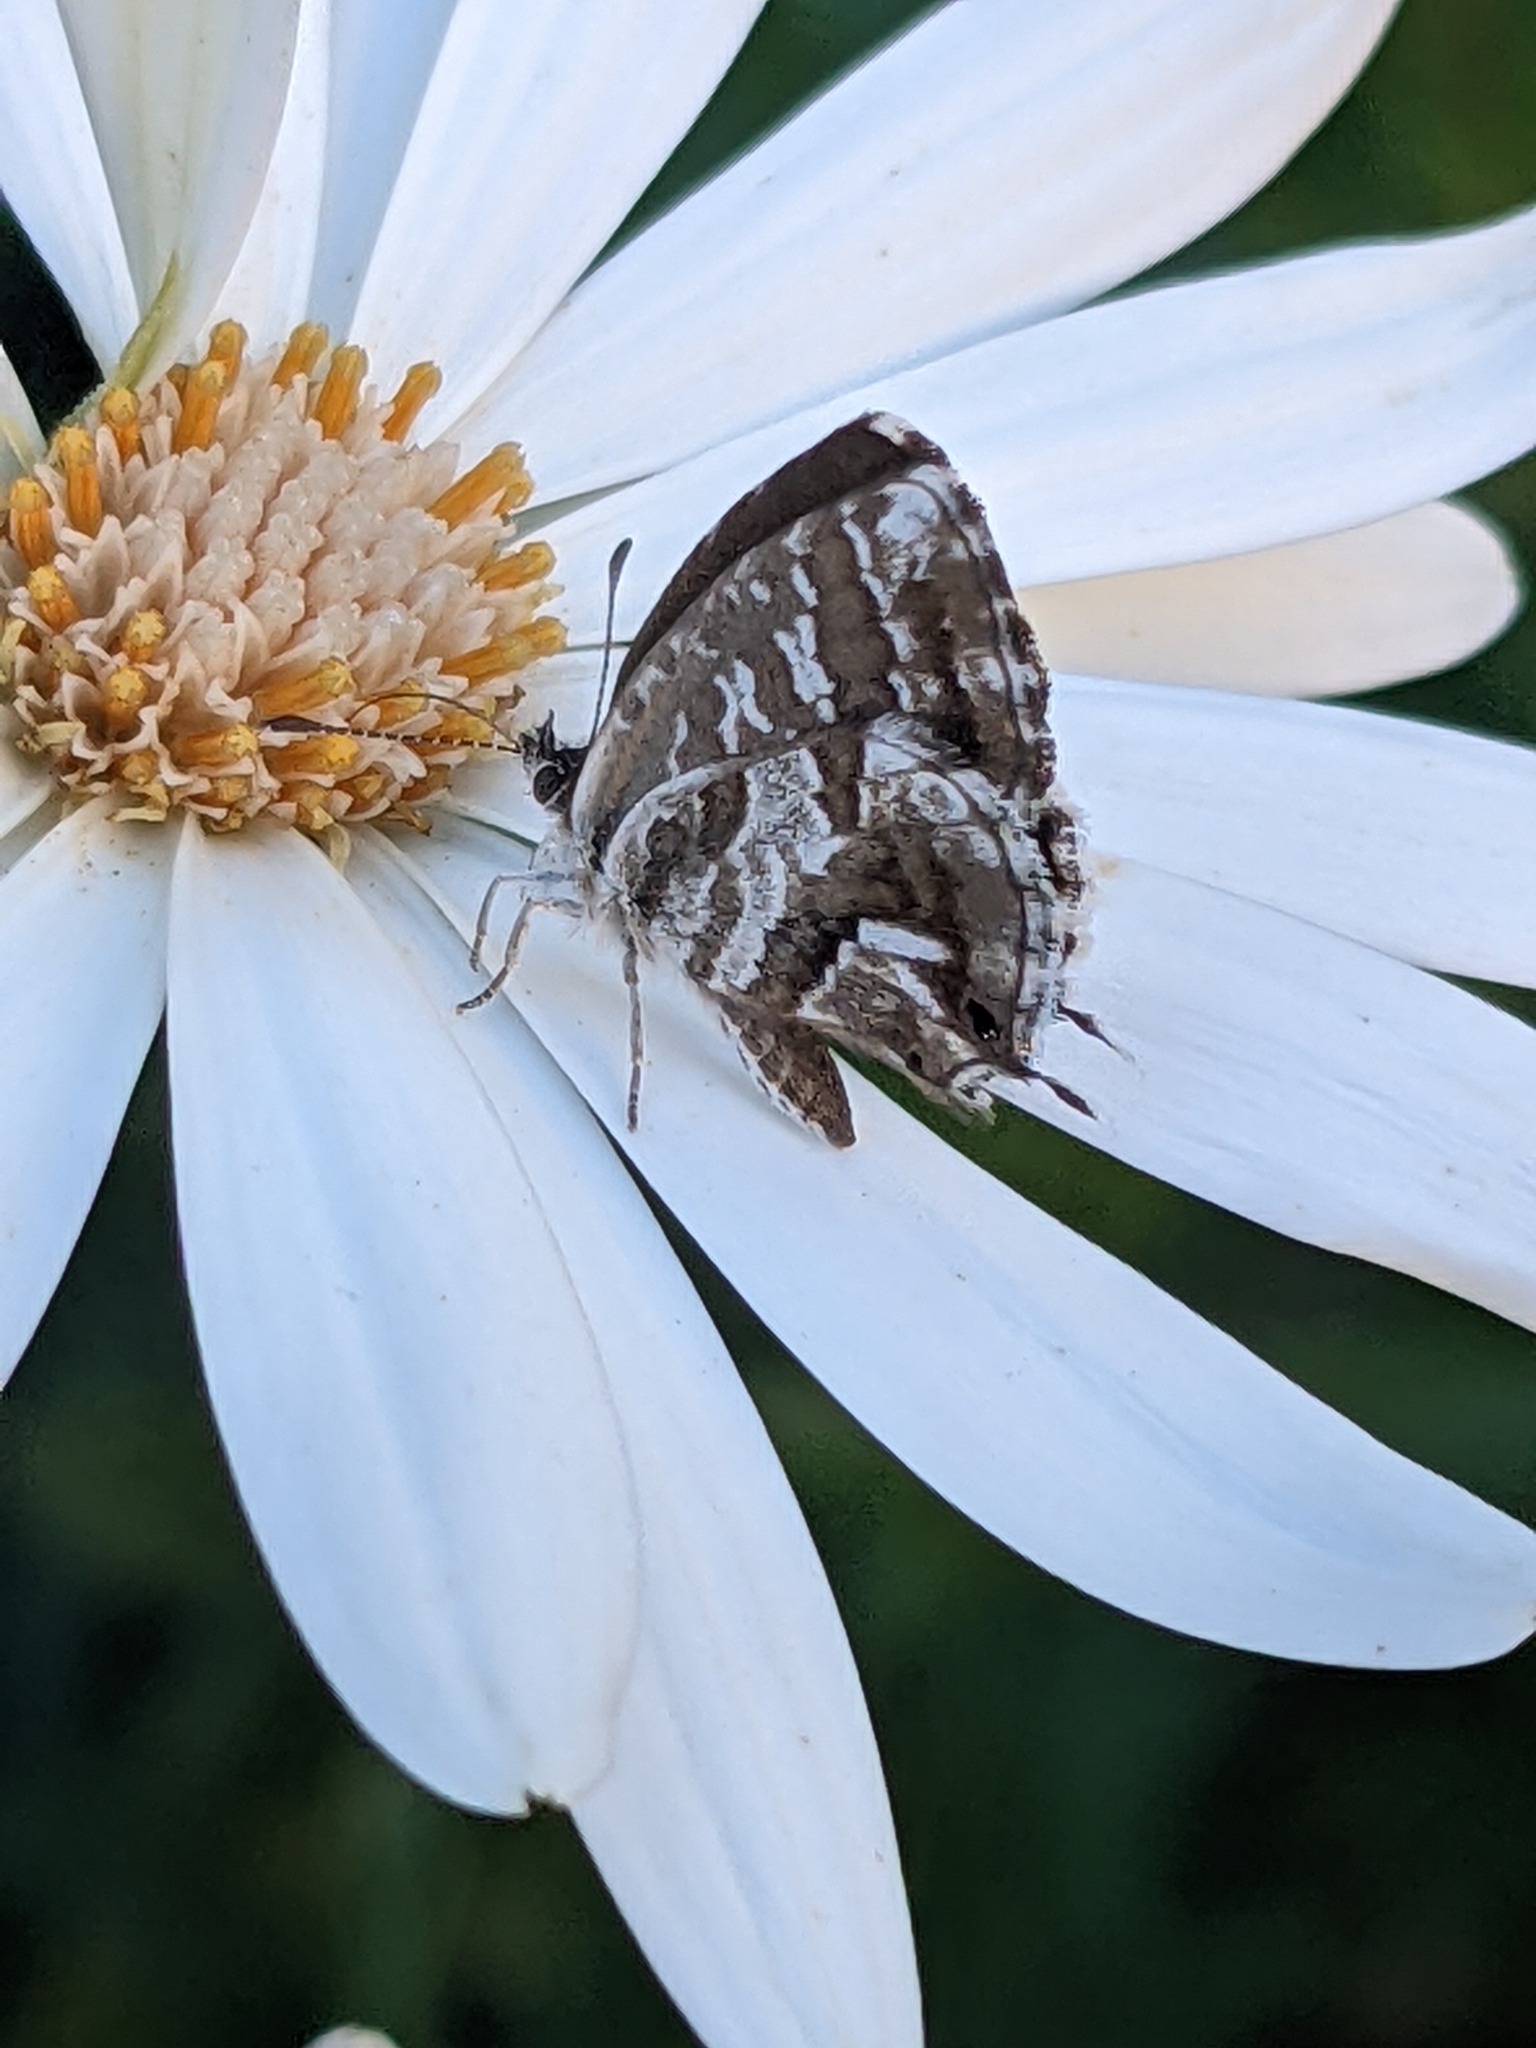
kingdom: Animalia
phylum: Arthropoda
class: Insecta
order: Lepidoptera
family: Lycaenidae
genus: Cacyreus
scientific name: Cacyreus marshalli
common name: Geranium bronze
